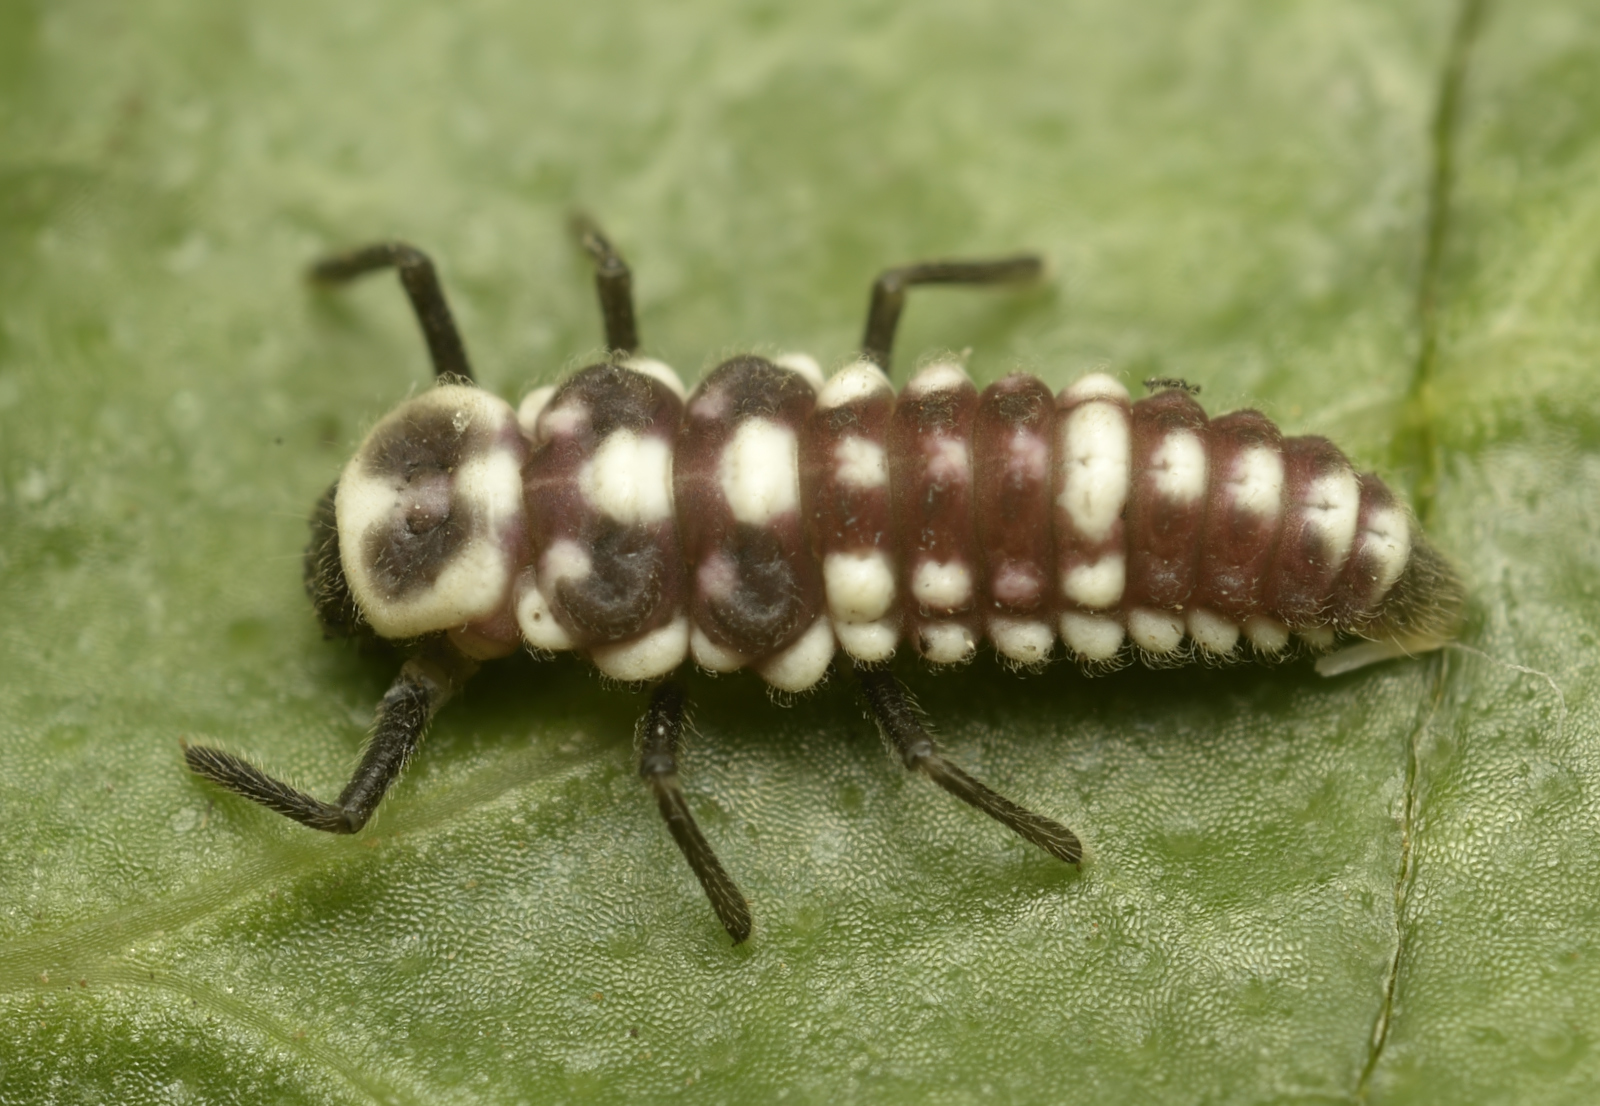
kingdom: Animalia
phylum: Arthropoda
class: Insecta
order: Coleoptera
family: Coccinellidae
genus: Anegleis
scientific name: Anegleis cardoni
